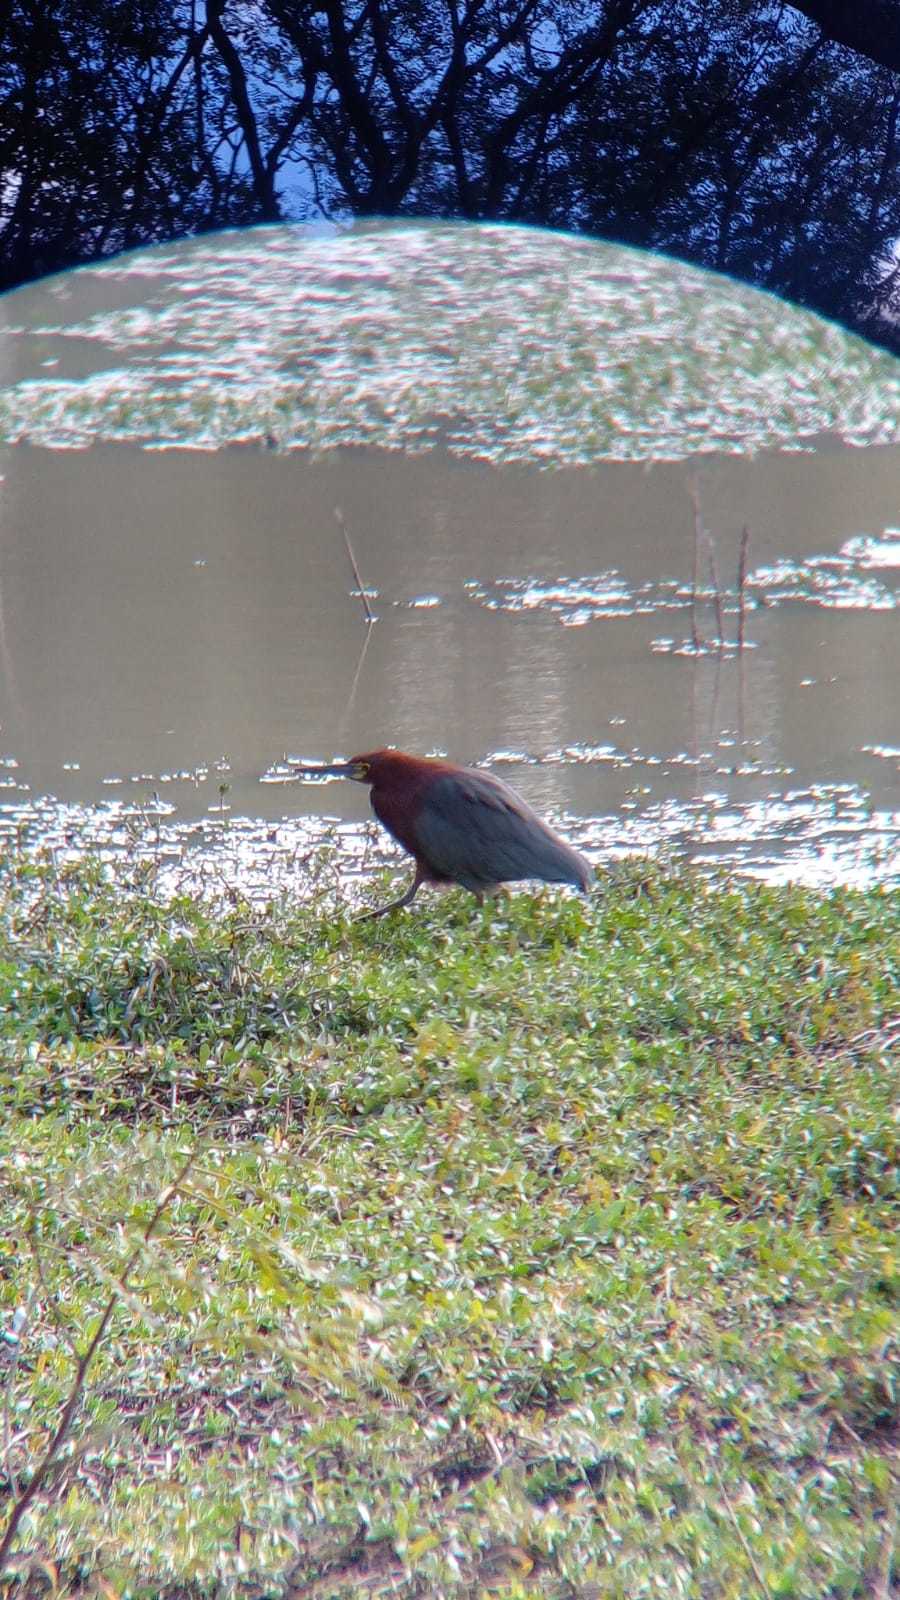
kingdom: Animalia
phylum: Chordata
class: Aves
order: Pelecaniformes
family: Ardeidae
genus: Tigrisoma
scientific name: Tigrisoma lineatum
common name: Rufescent tiger-heron
